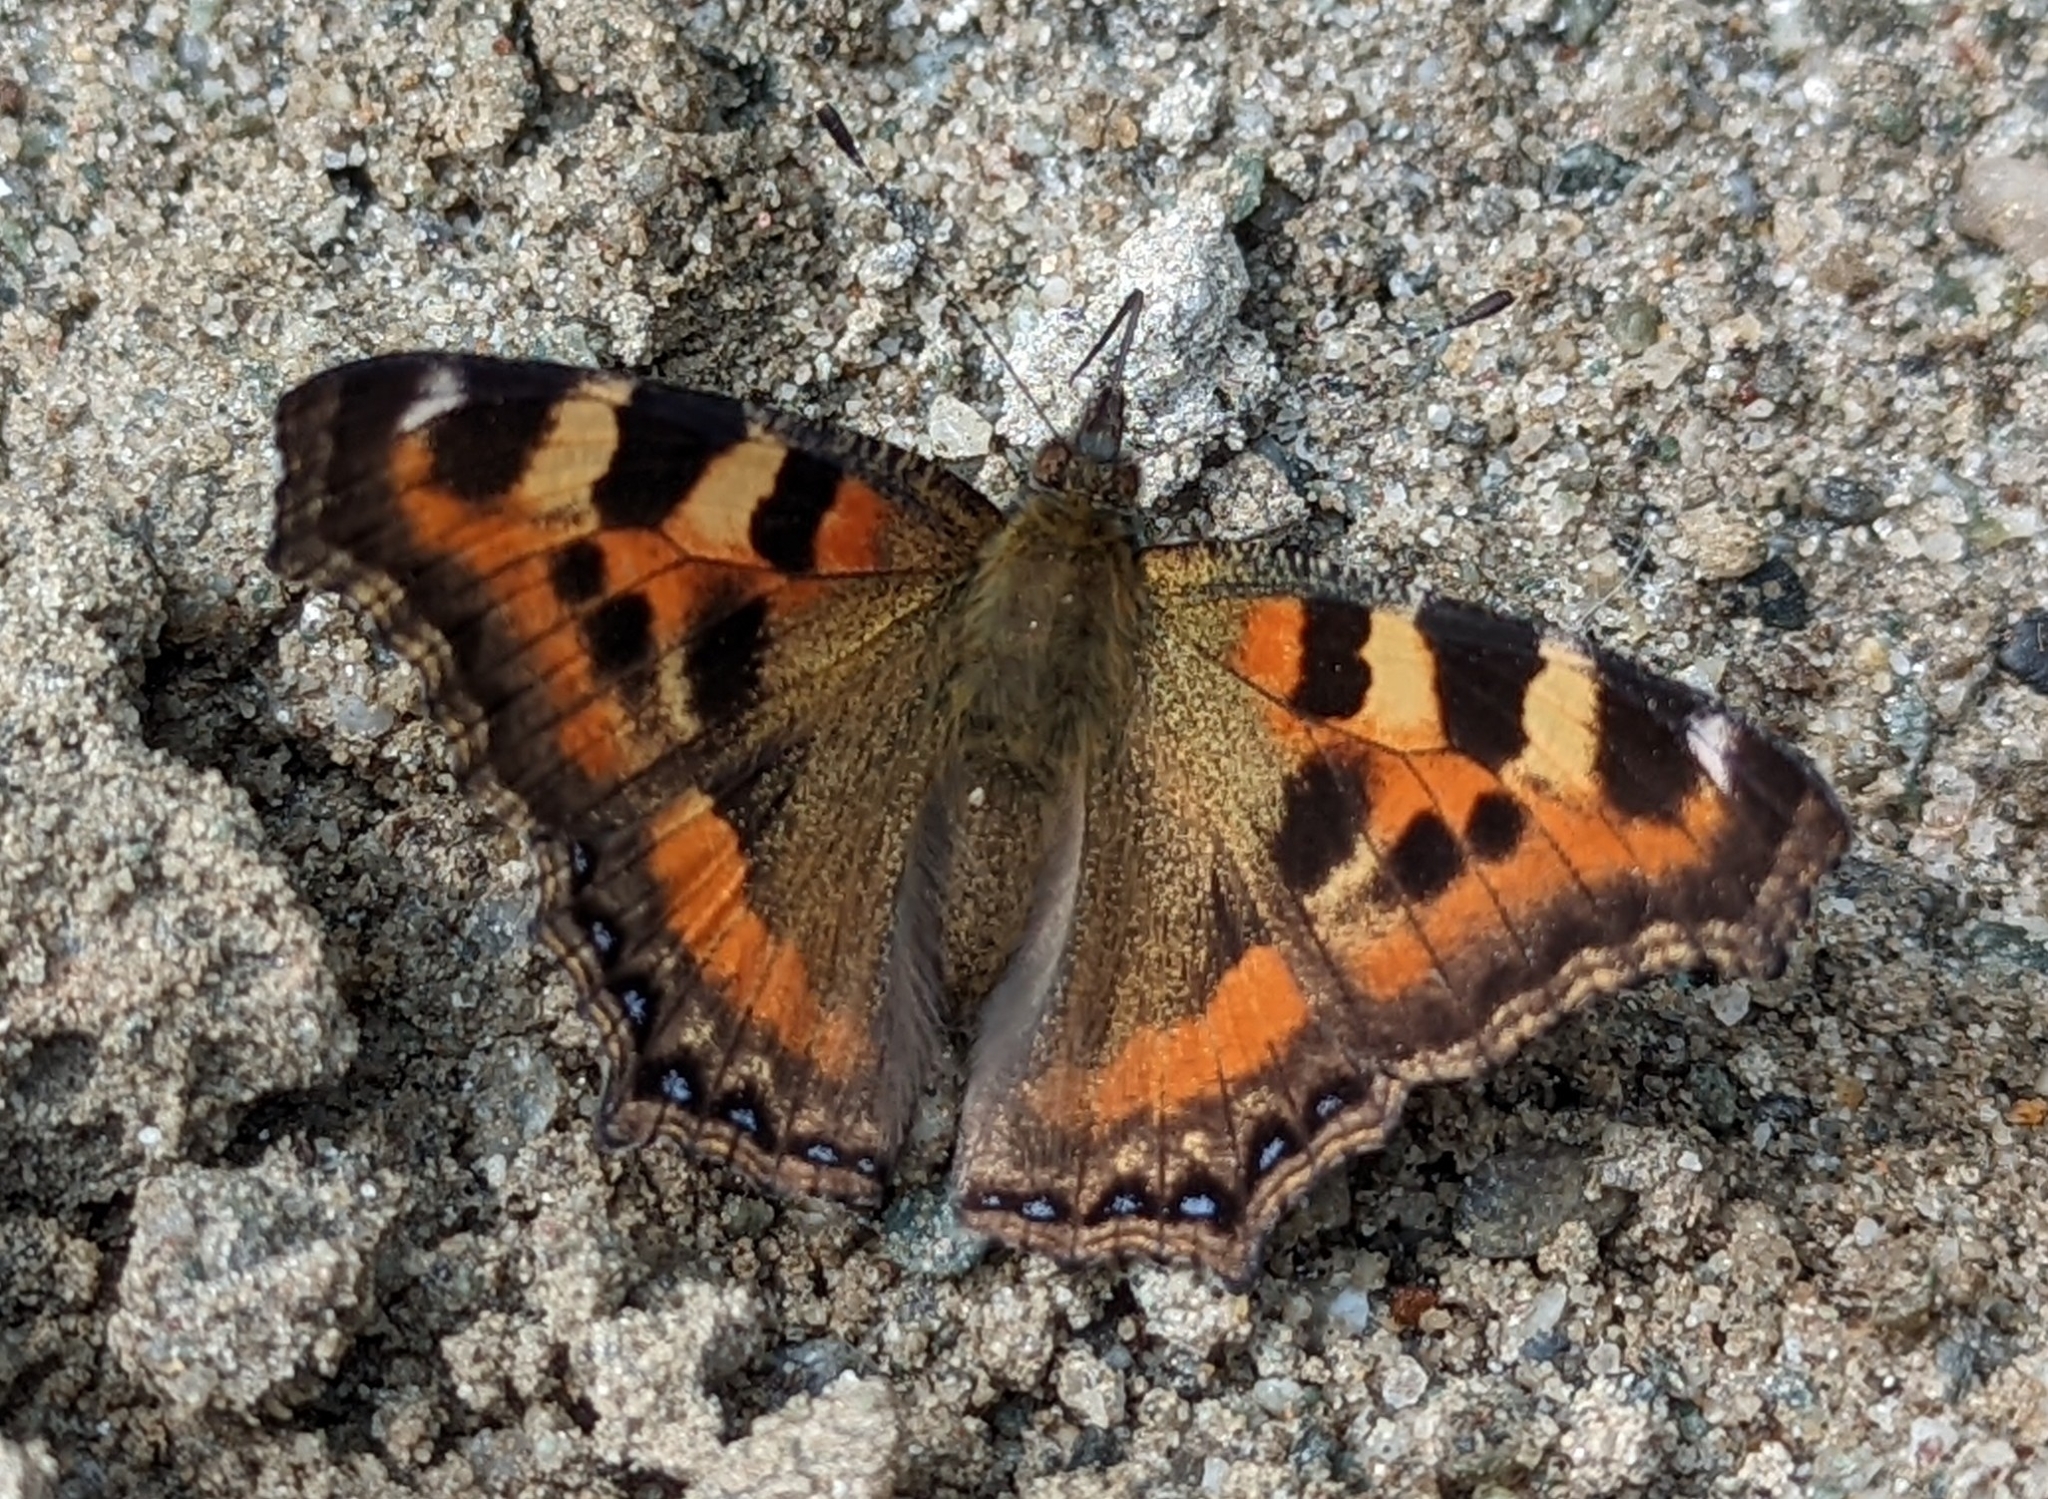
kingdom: Animalia
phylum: Arthropoda
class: Insecta
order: Lepidoptera
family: Nymphalidae
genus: Aglais
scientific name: Aglais caschmirensis
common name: Indian tortoiseshell
